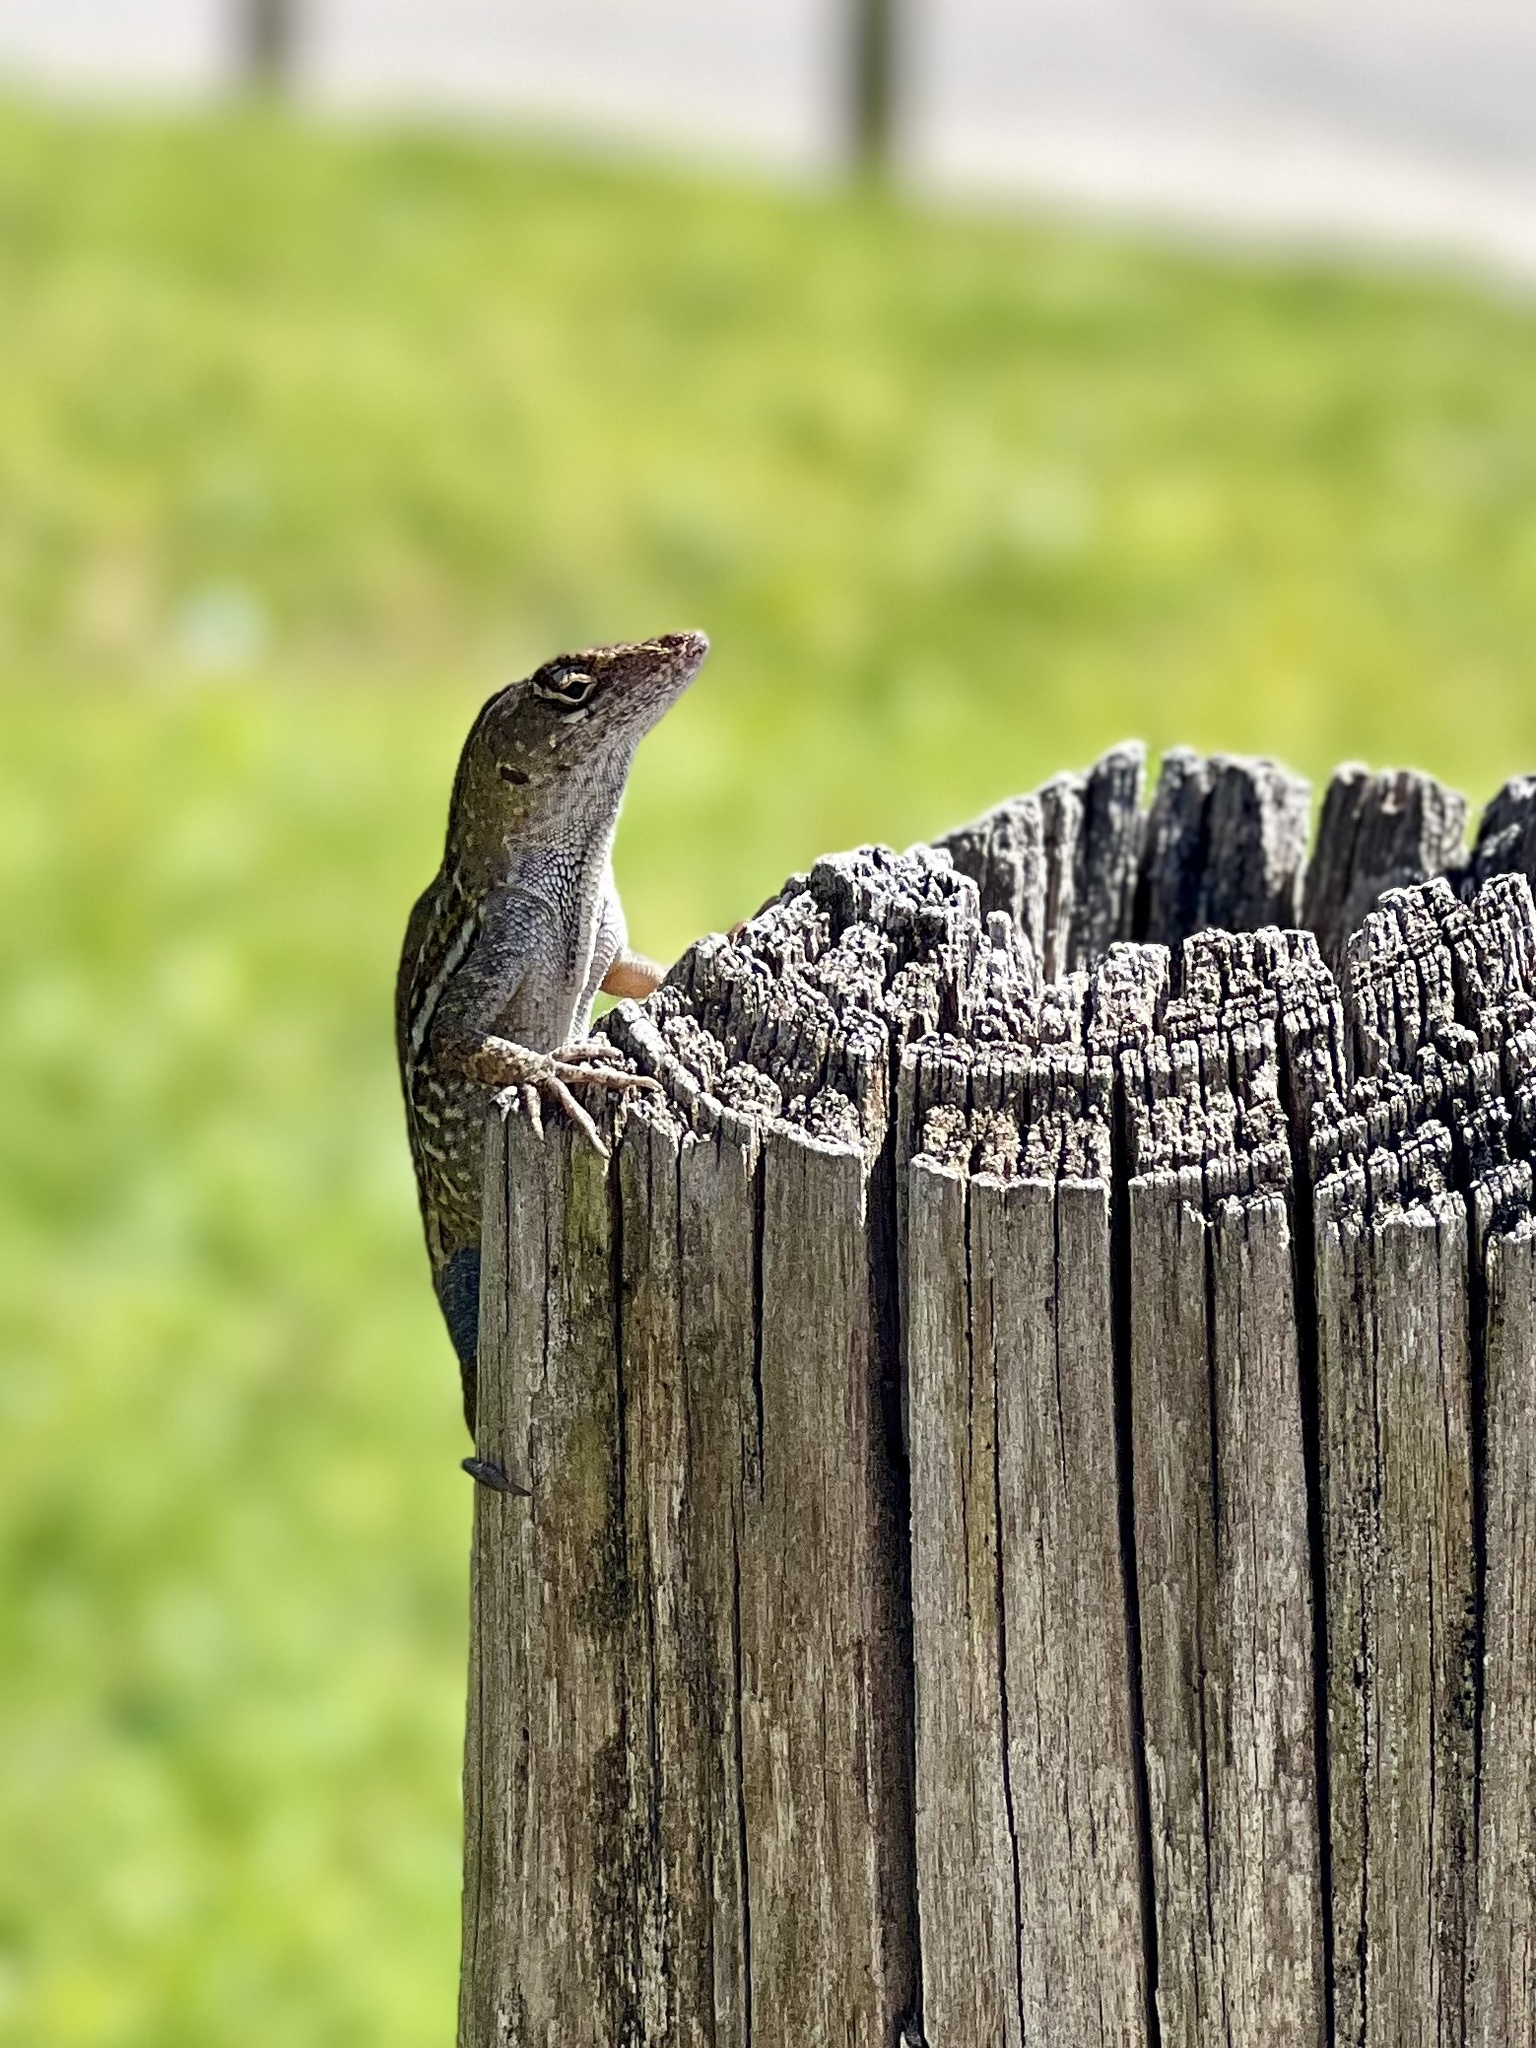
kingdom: Animalia
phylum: Chordata
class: Squamata
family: Dactyloidae
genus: Anolis
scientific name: Anolis sagrei
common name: Brown anole
